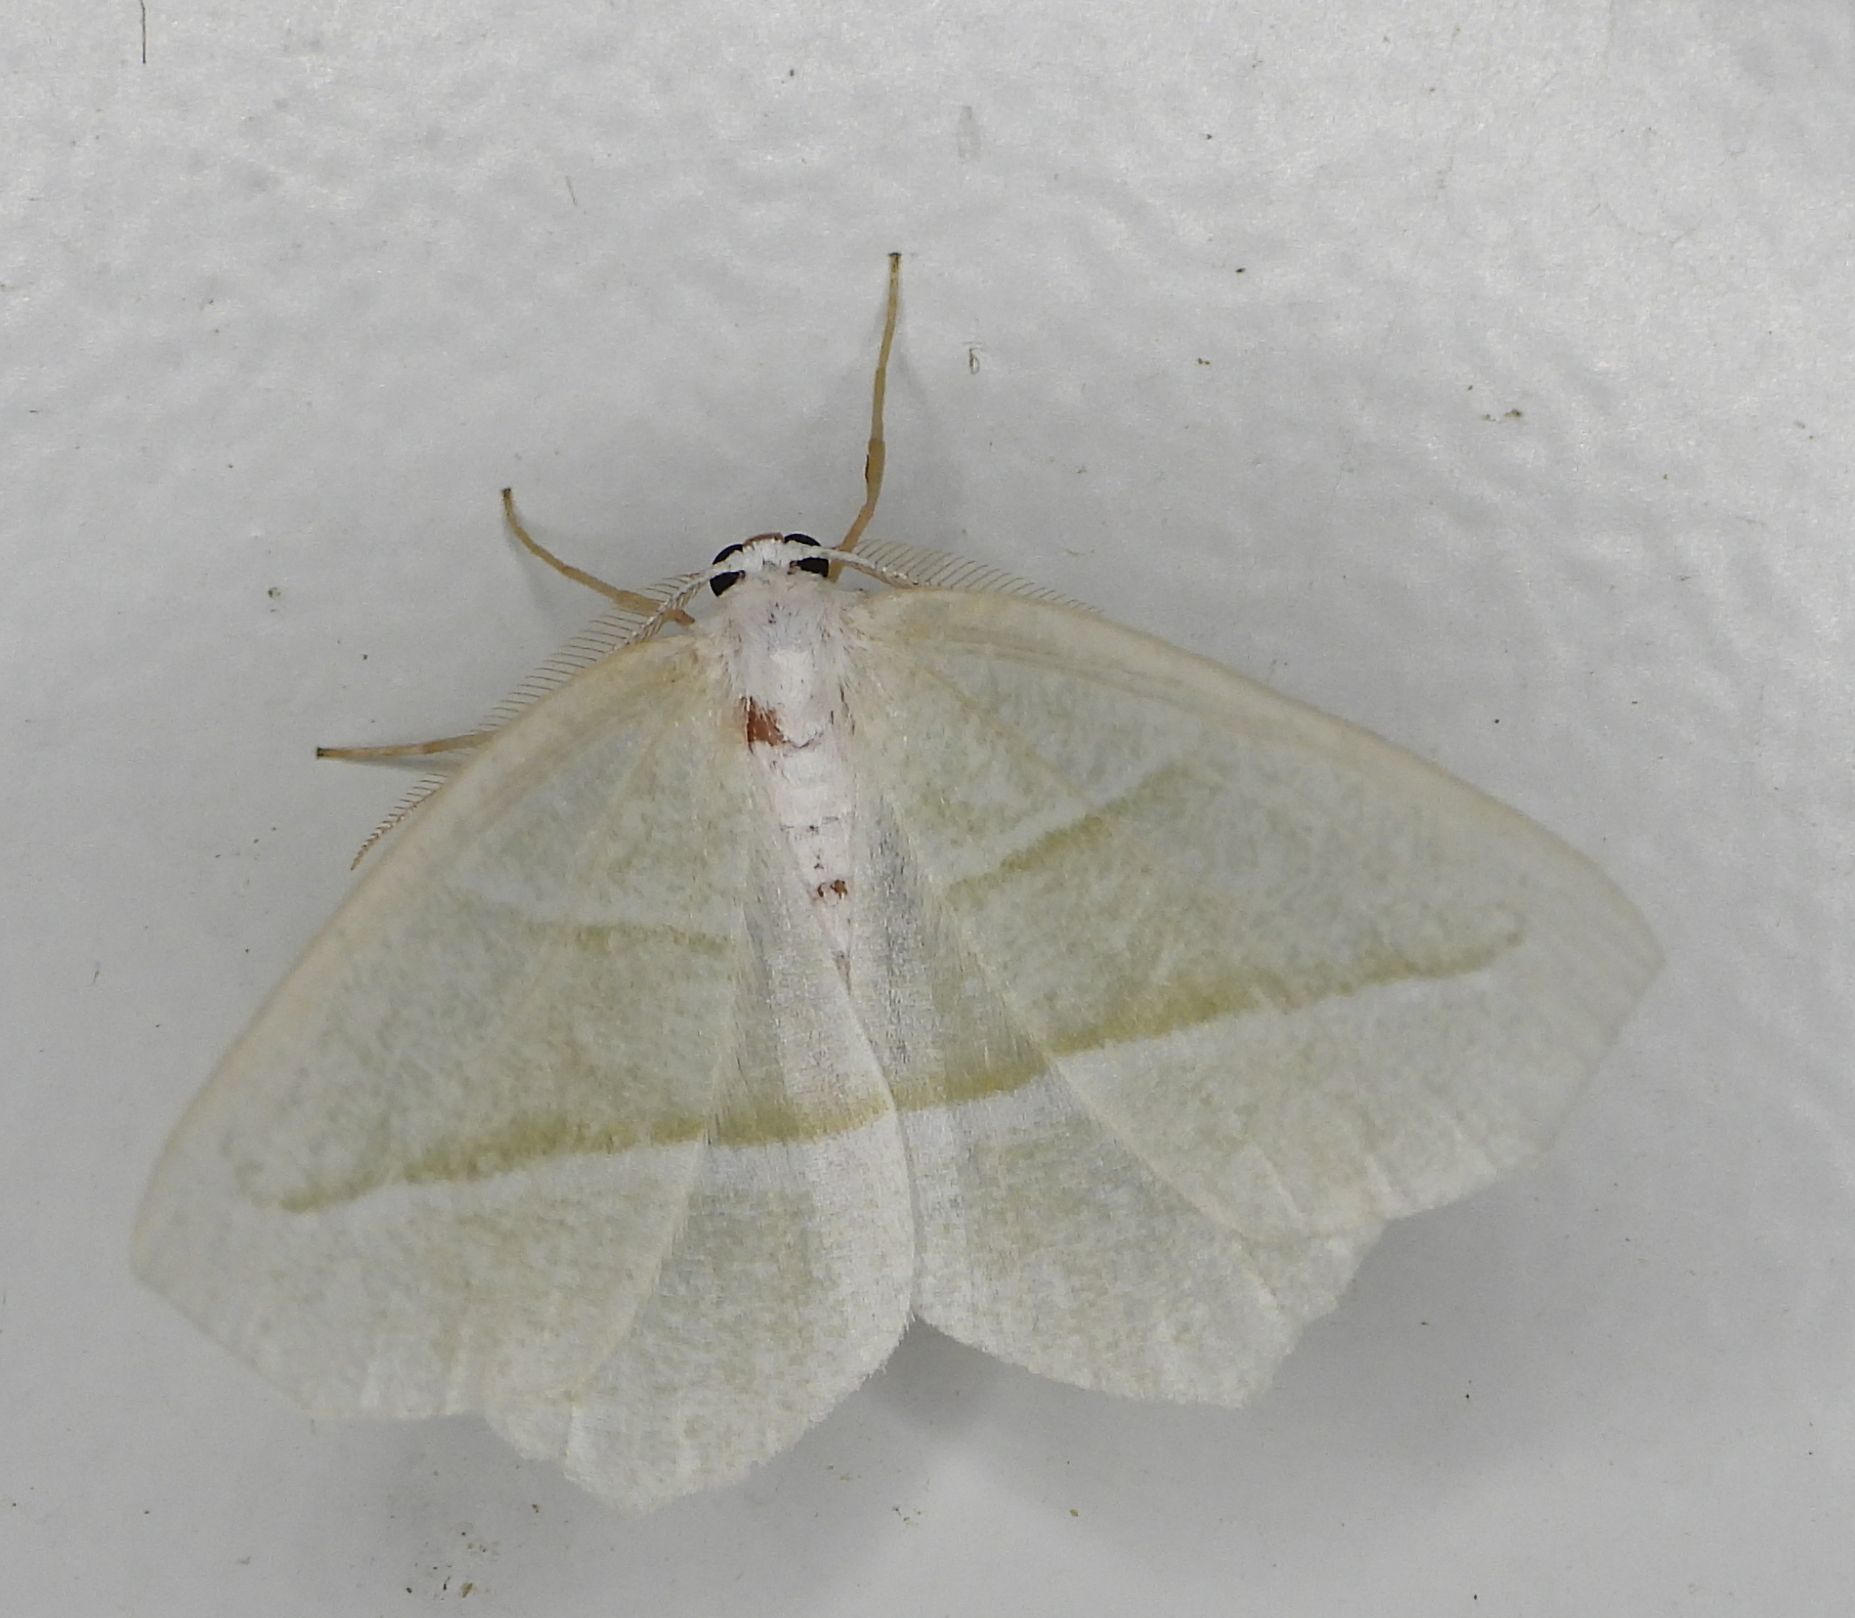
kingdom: Animalia
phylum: Arthropoda
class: Insecta
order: Lepidoptera
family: Geometridae
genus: Campaea
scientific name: Campaea perlata
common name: Fringed looper
